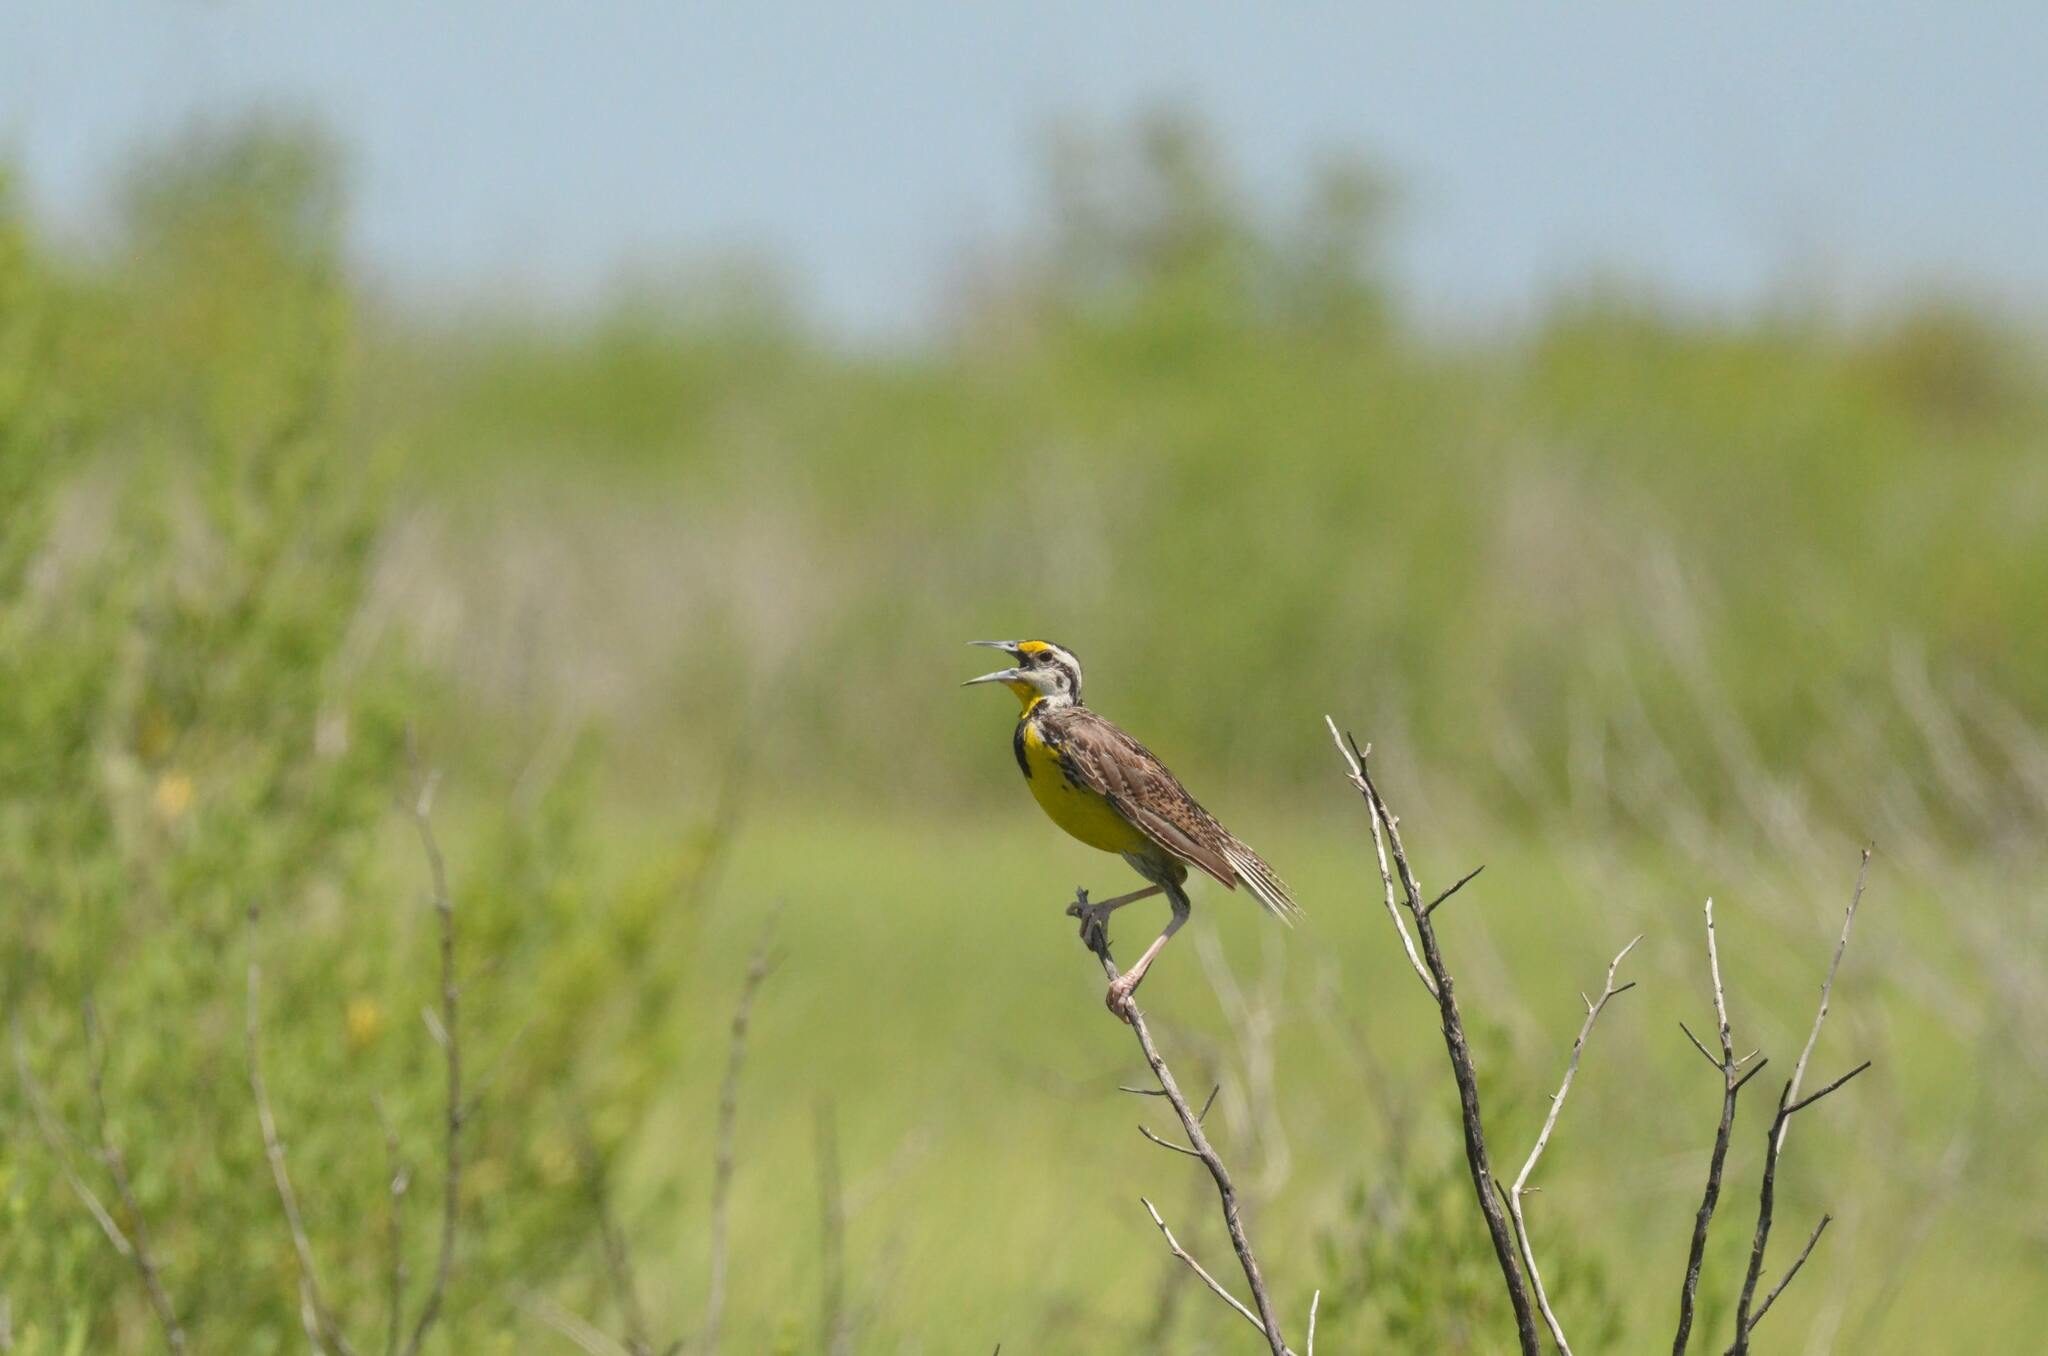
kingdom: Animalia
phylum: Chordata
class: Aves
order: Passeriformes
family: Icteridae
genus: Sturnella
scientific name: Sturnella magna
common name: Eastern meadowlark
